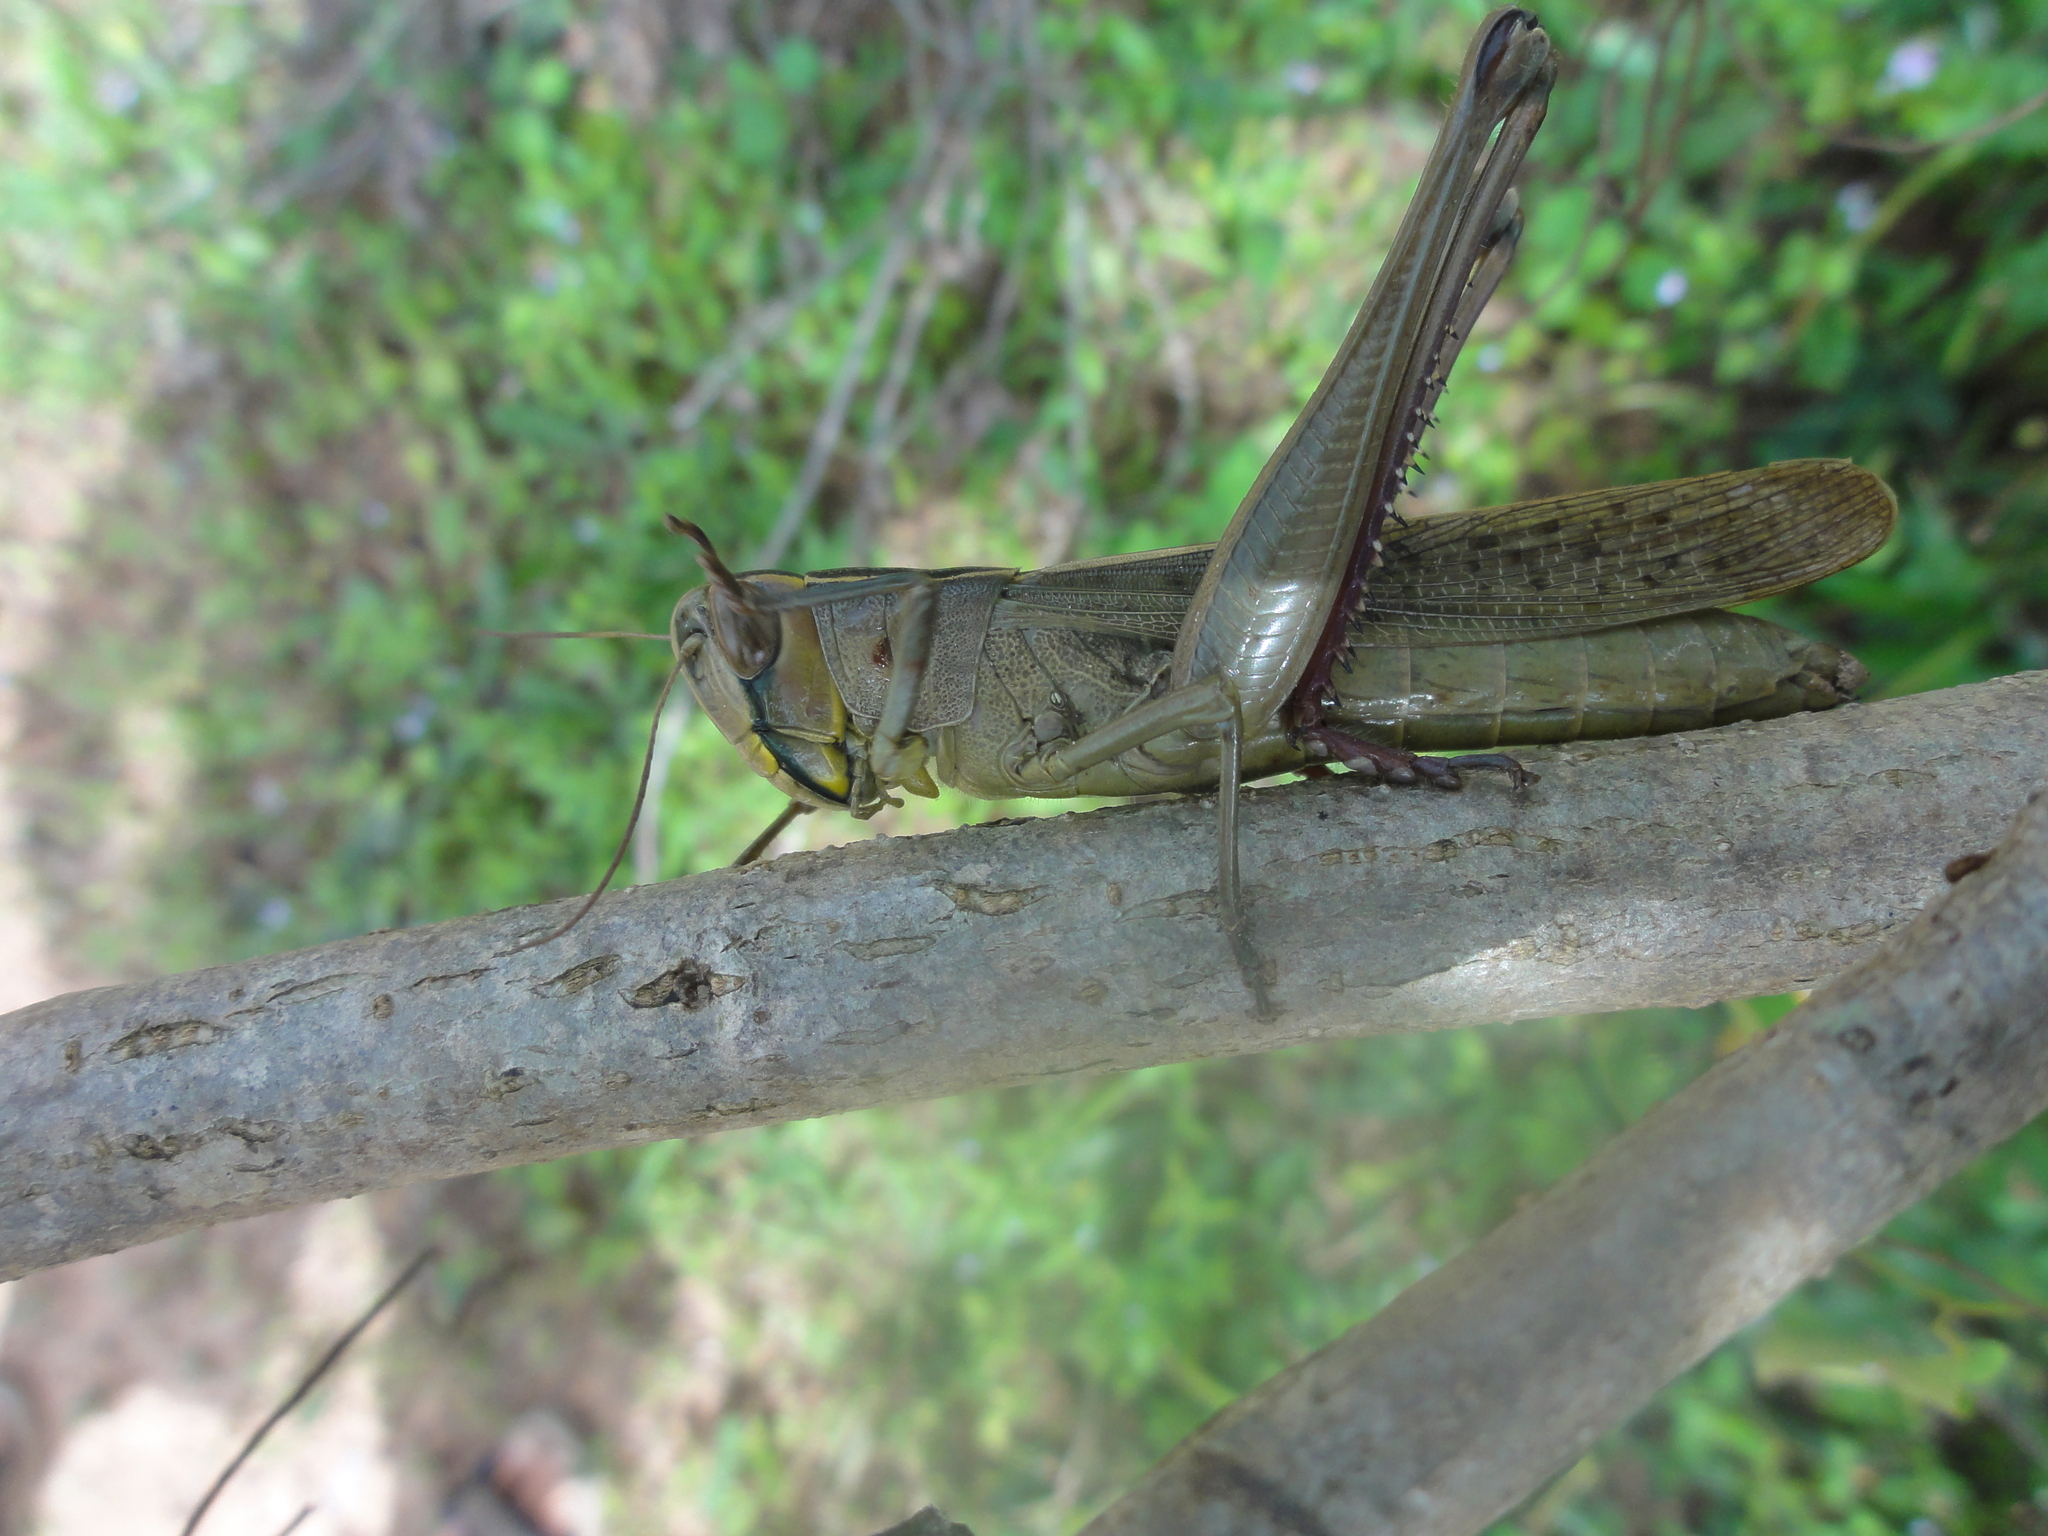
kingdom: Animalia
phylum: Arthropoda
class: Insecta
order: Orthoptera
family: Acrididae
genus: Choroedocus
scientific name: Choroedocus illustris
